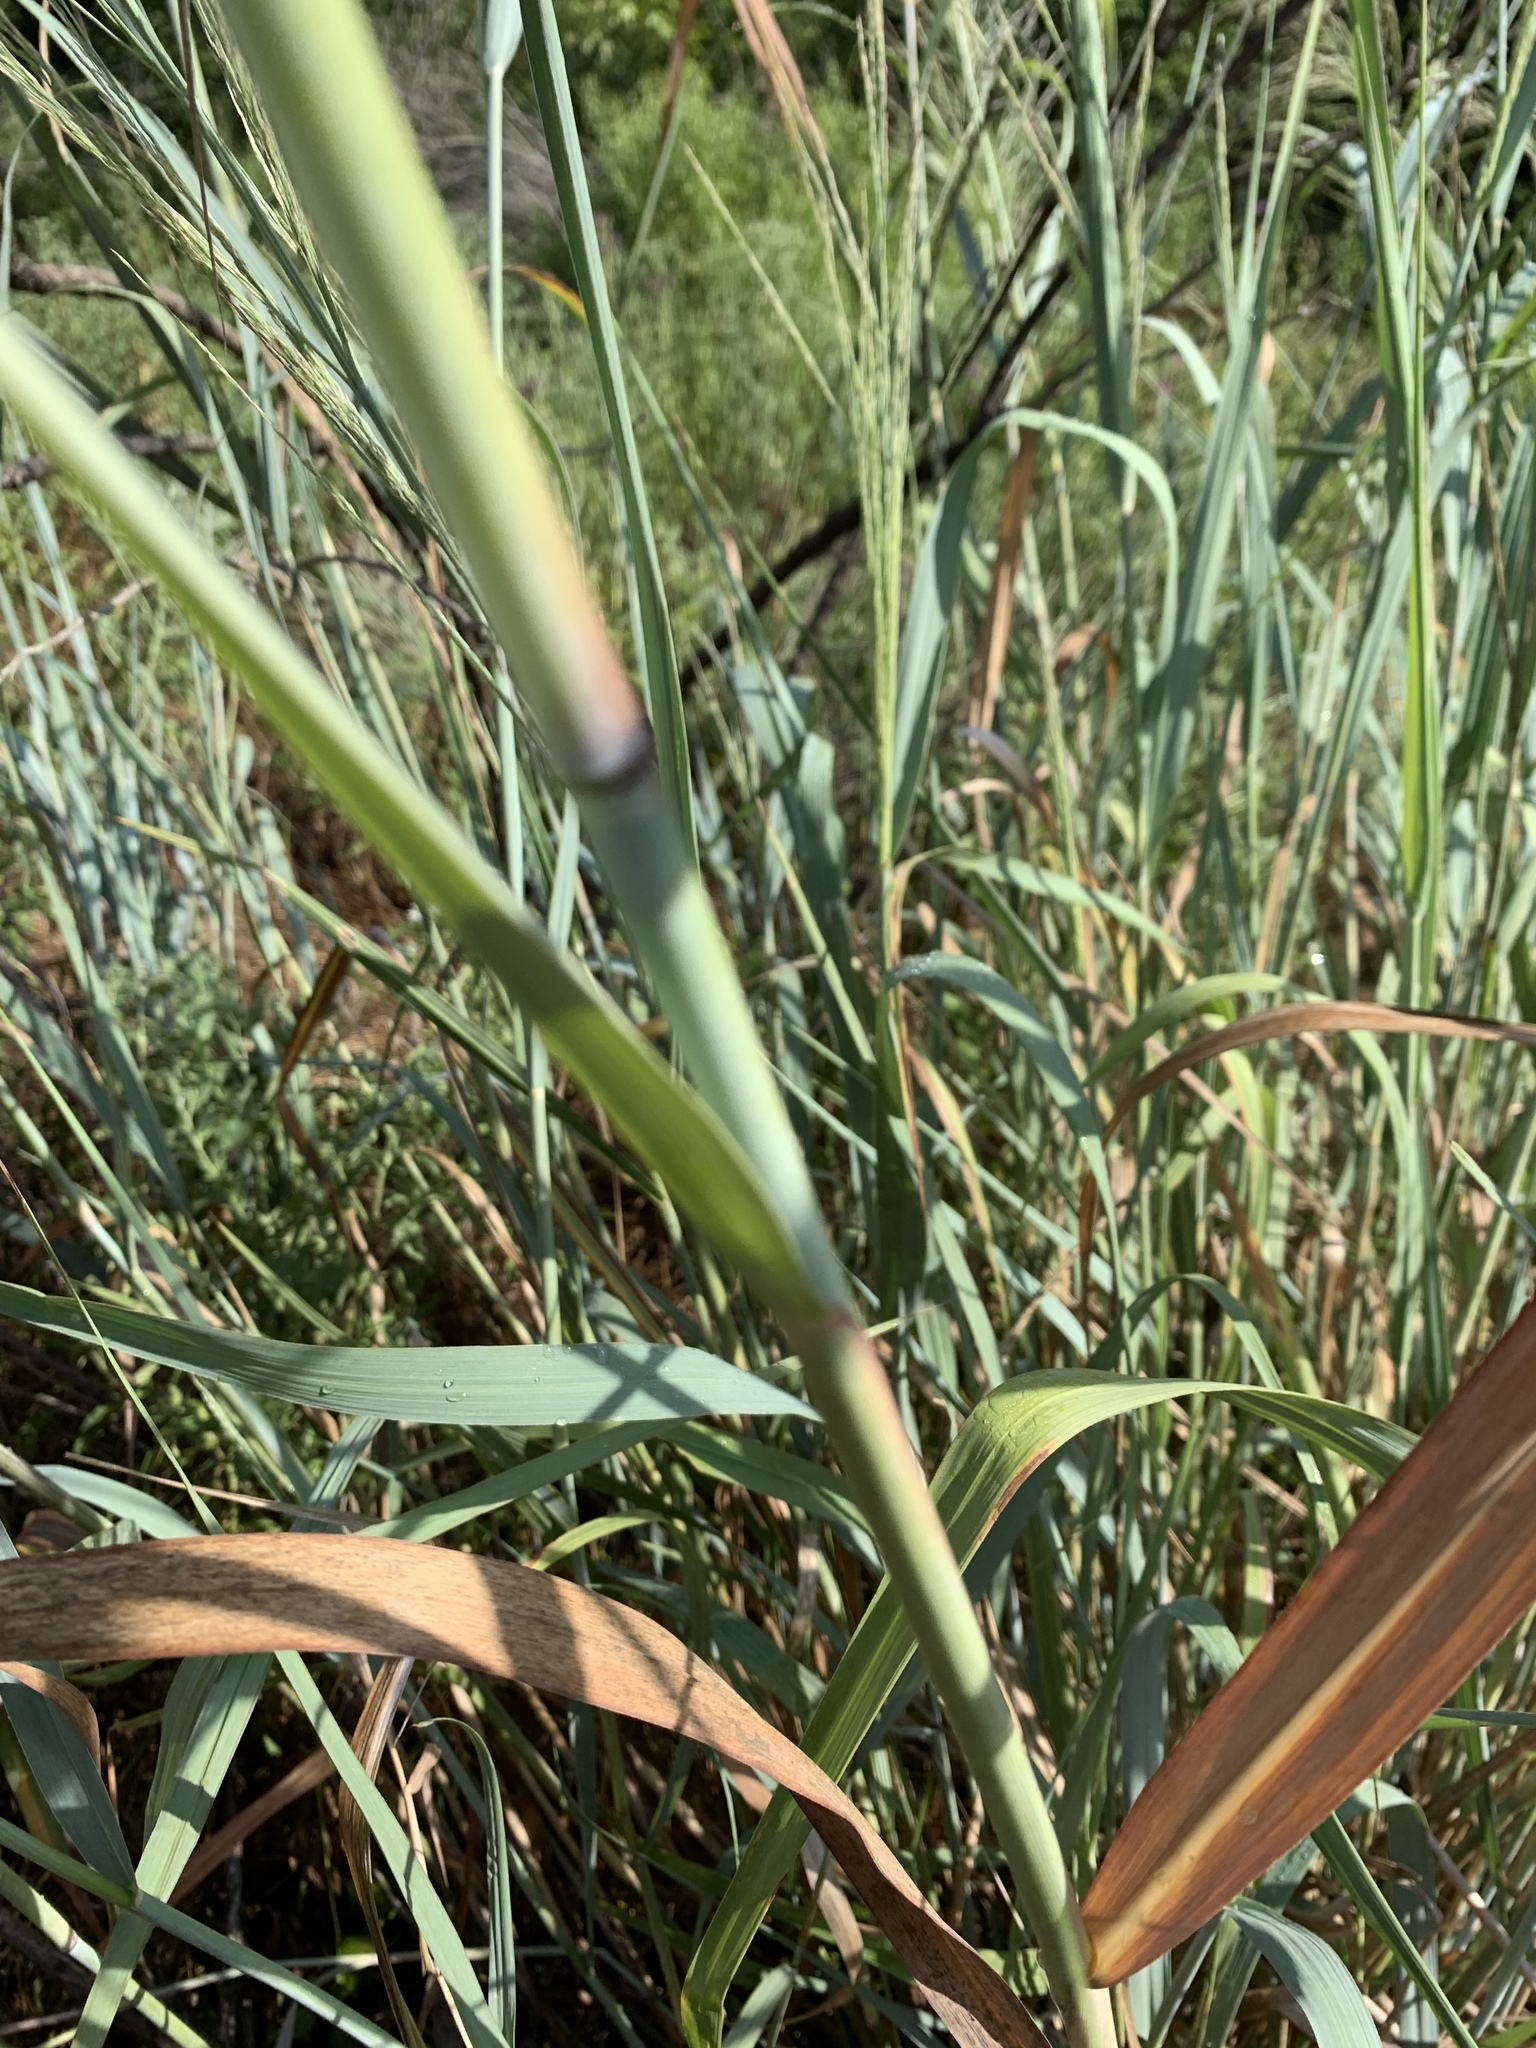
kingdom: Plantae
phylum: Tracheophyta
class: Liliopsida
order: Poales
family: Poaceae
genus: Panicum
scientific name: Panicum virgatum
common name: Switchgrass
